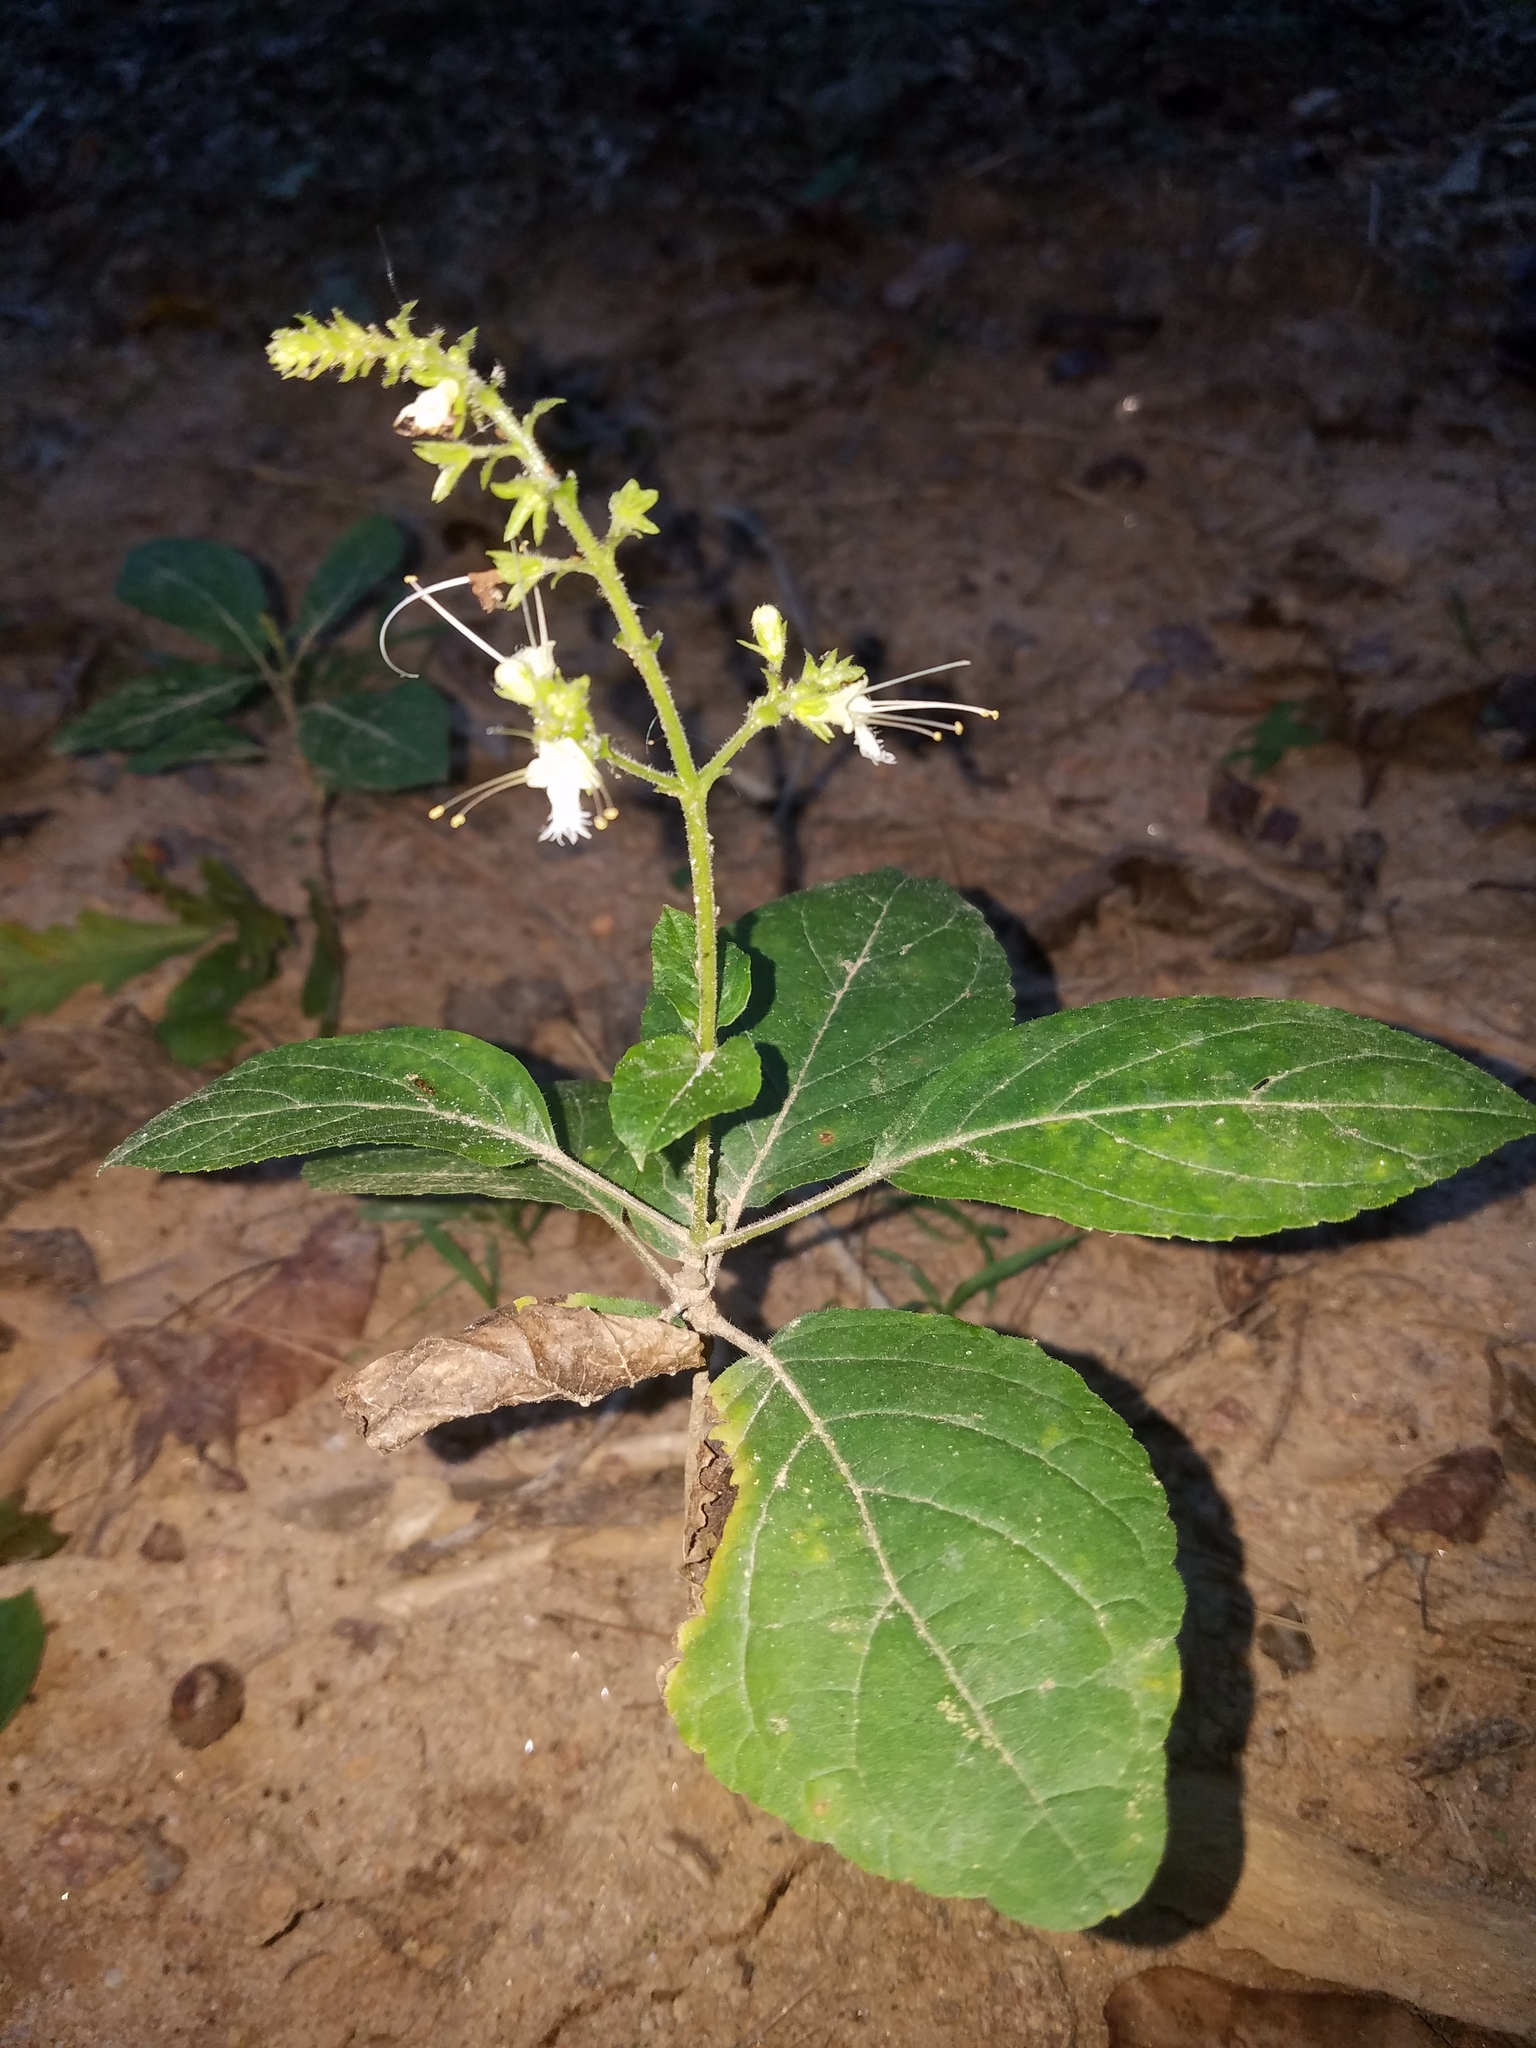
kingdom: Plantae
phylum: Tracheophyta
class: Magnoliopsida
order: Lamiales
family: Lamiaceae
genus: Collinsonia
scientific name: Collinsonia canadensis
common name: Northern horsebalm
